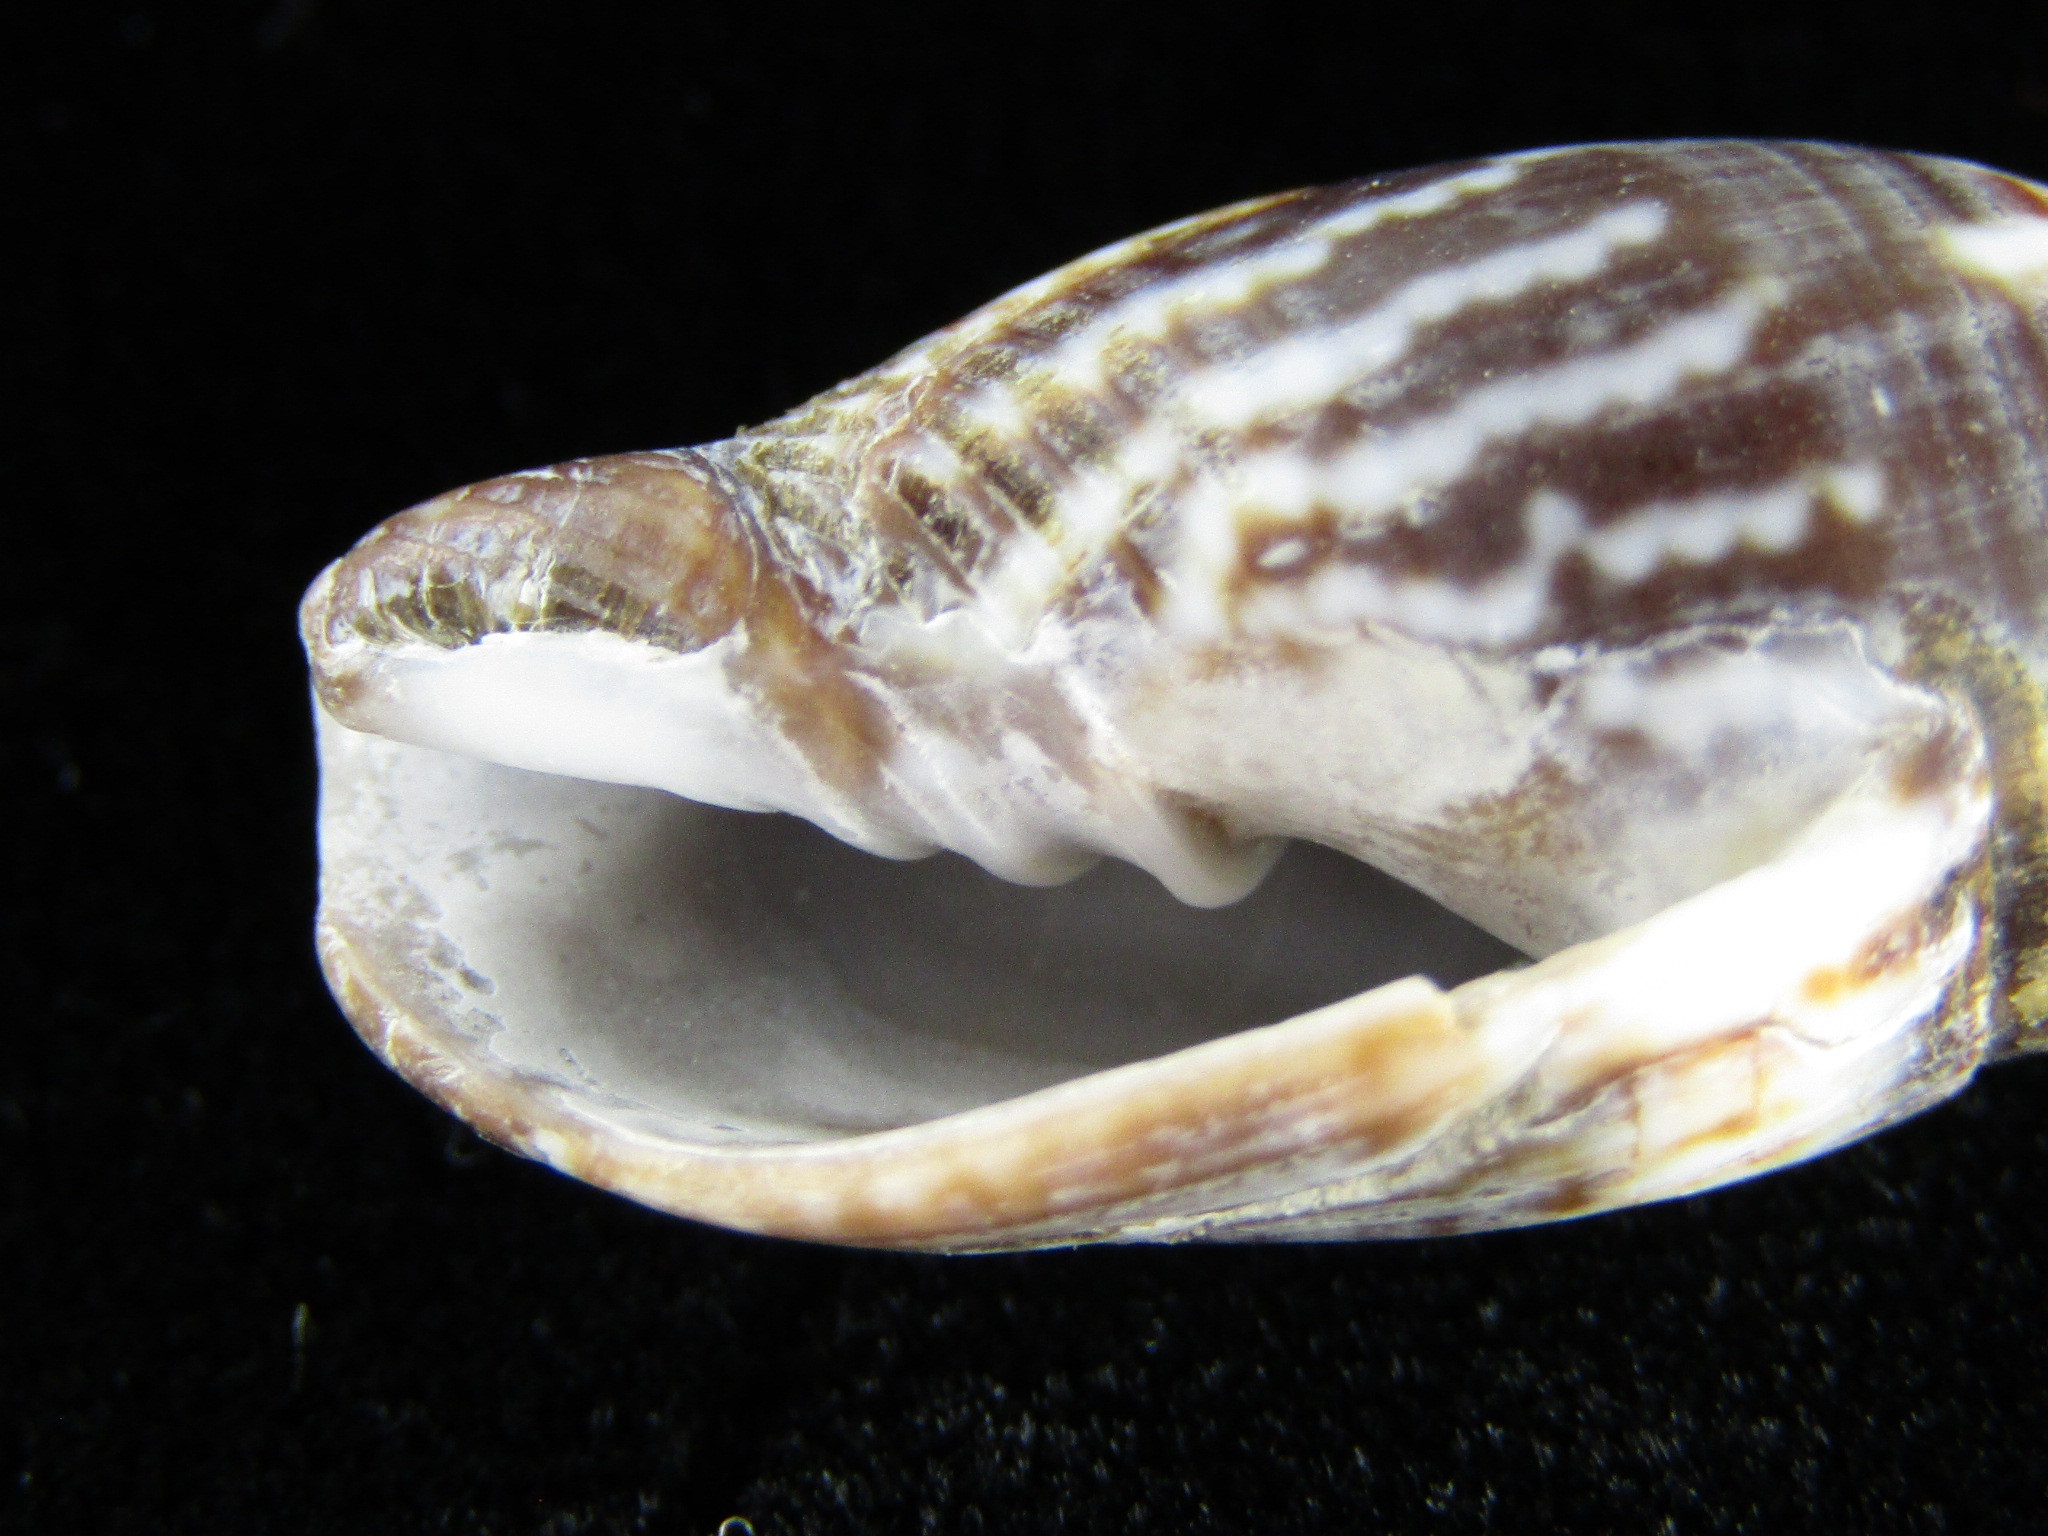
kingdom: Animalia
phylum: Mollusca
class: Gastropoda
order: Neogastropoda
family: Mitridae
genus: Strigatella
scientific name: Strigatella scutulata
